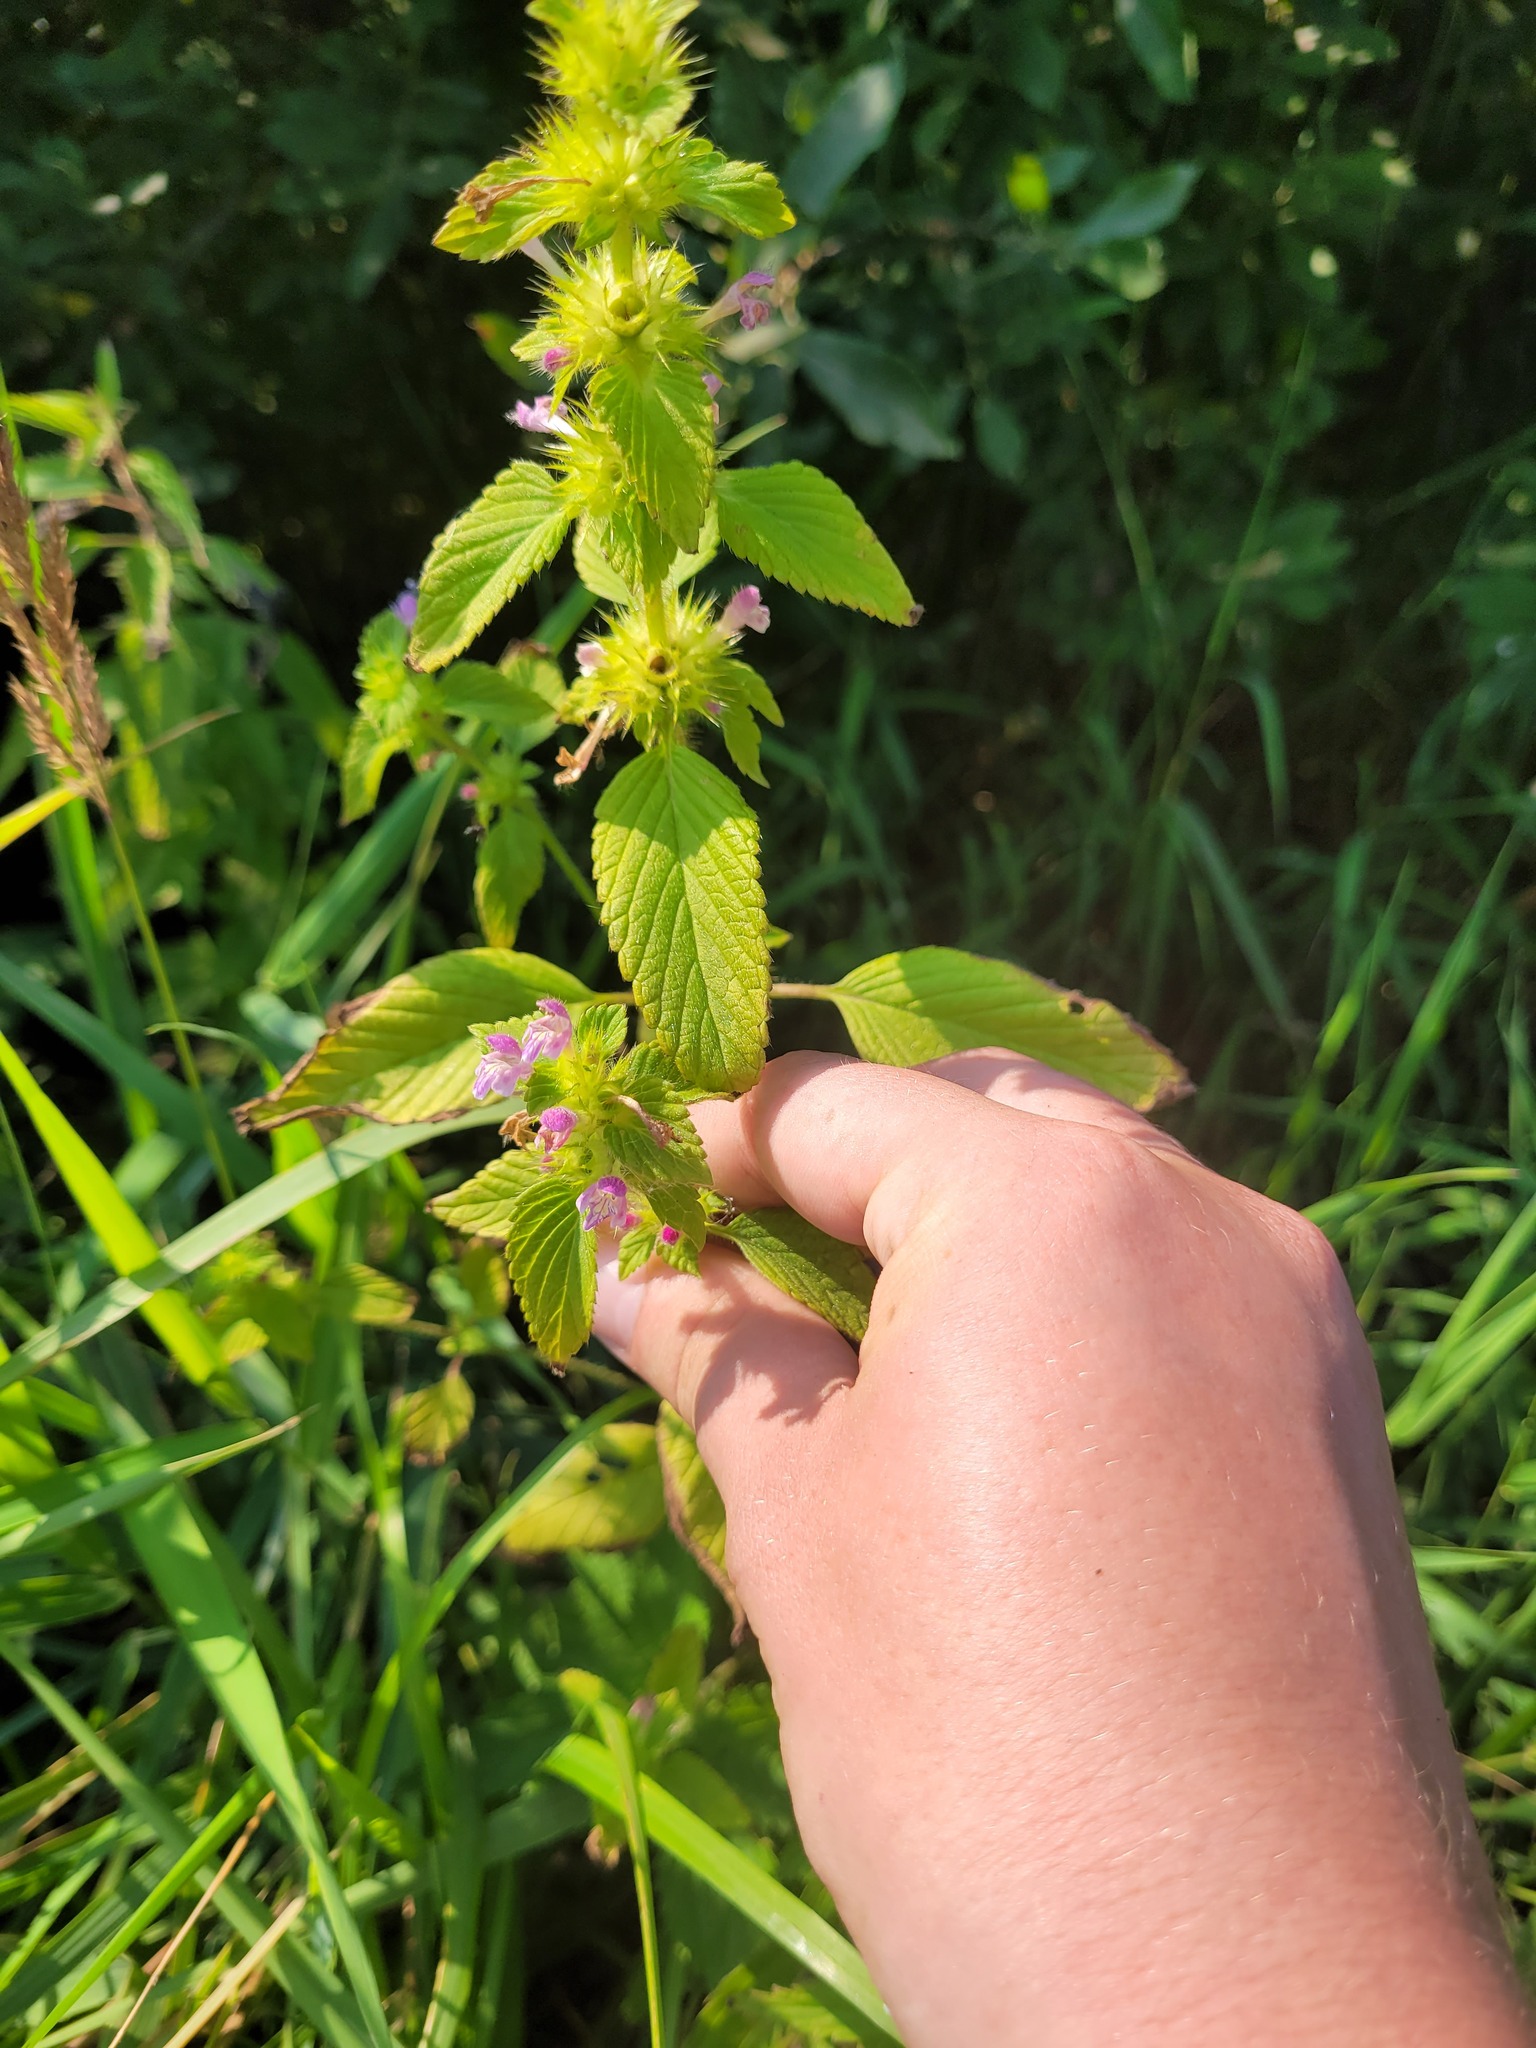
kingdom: Plantae
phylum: Tracheophyta
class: Magnoliopsida
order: Lamiales
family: Lamiaceae
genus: Galeopsis
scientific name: Galeopsis bifida
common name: Bifid hemp-nettle
